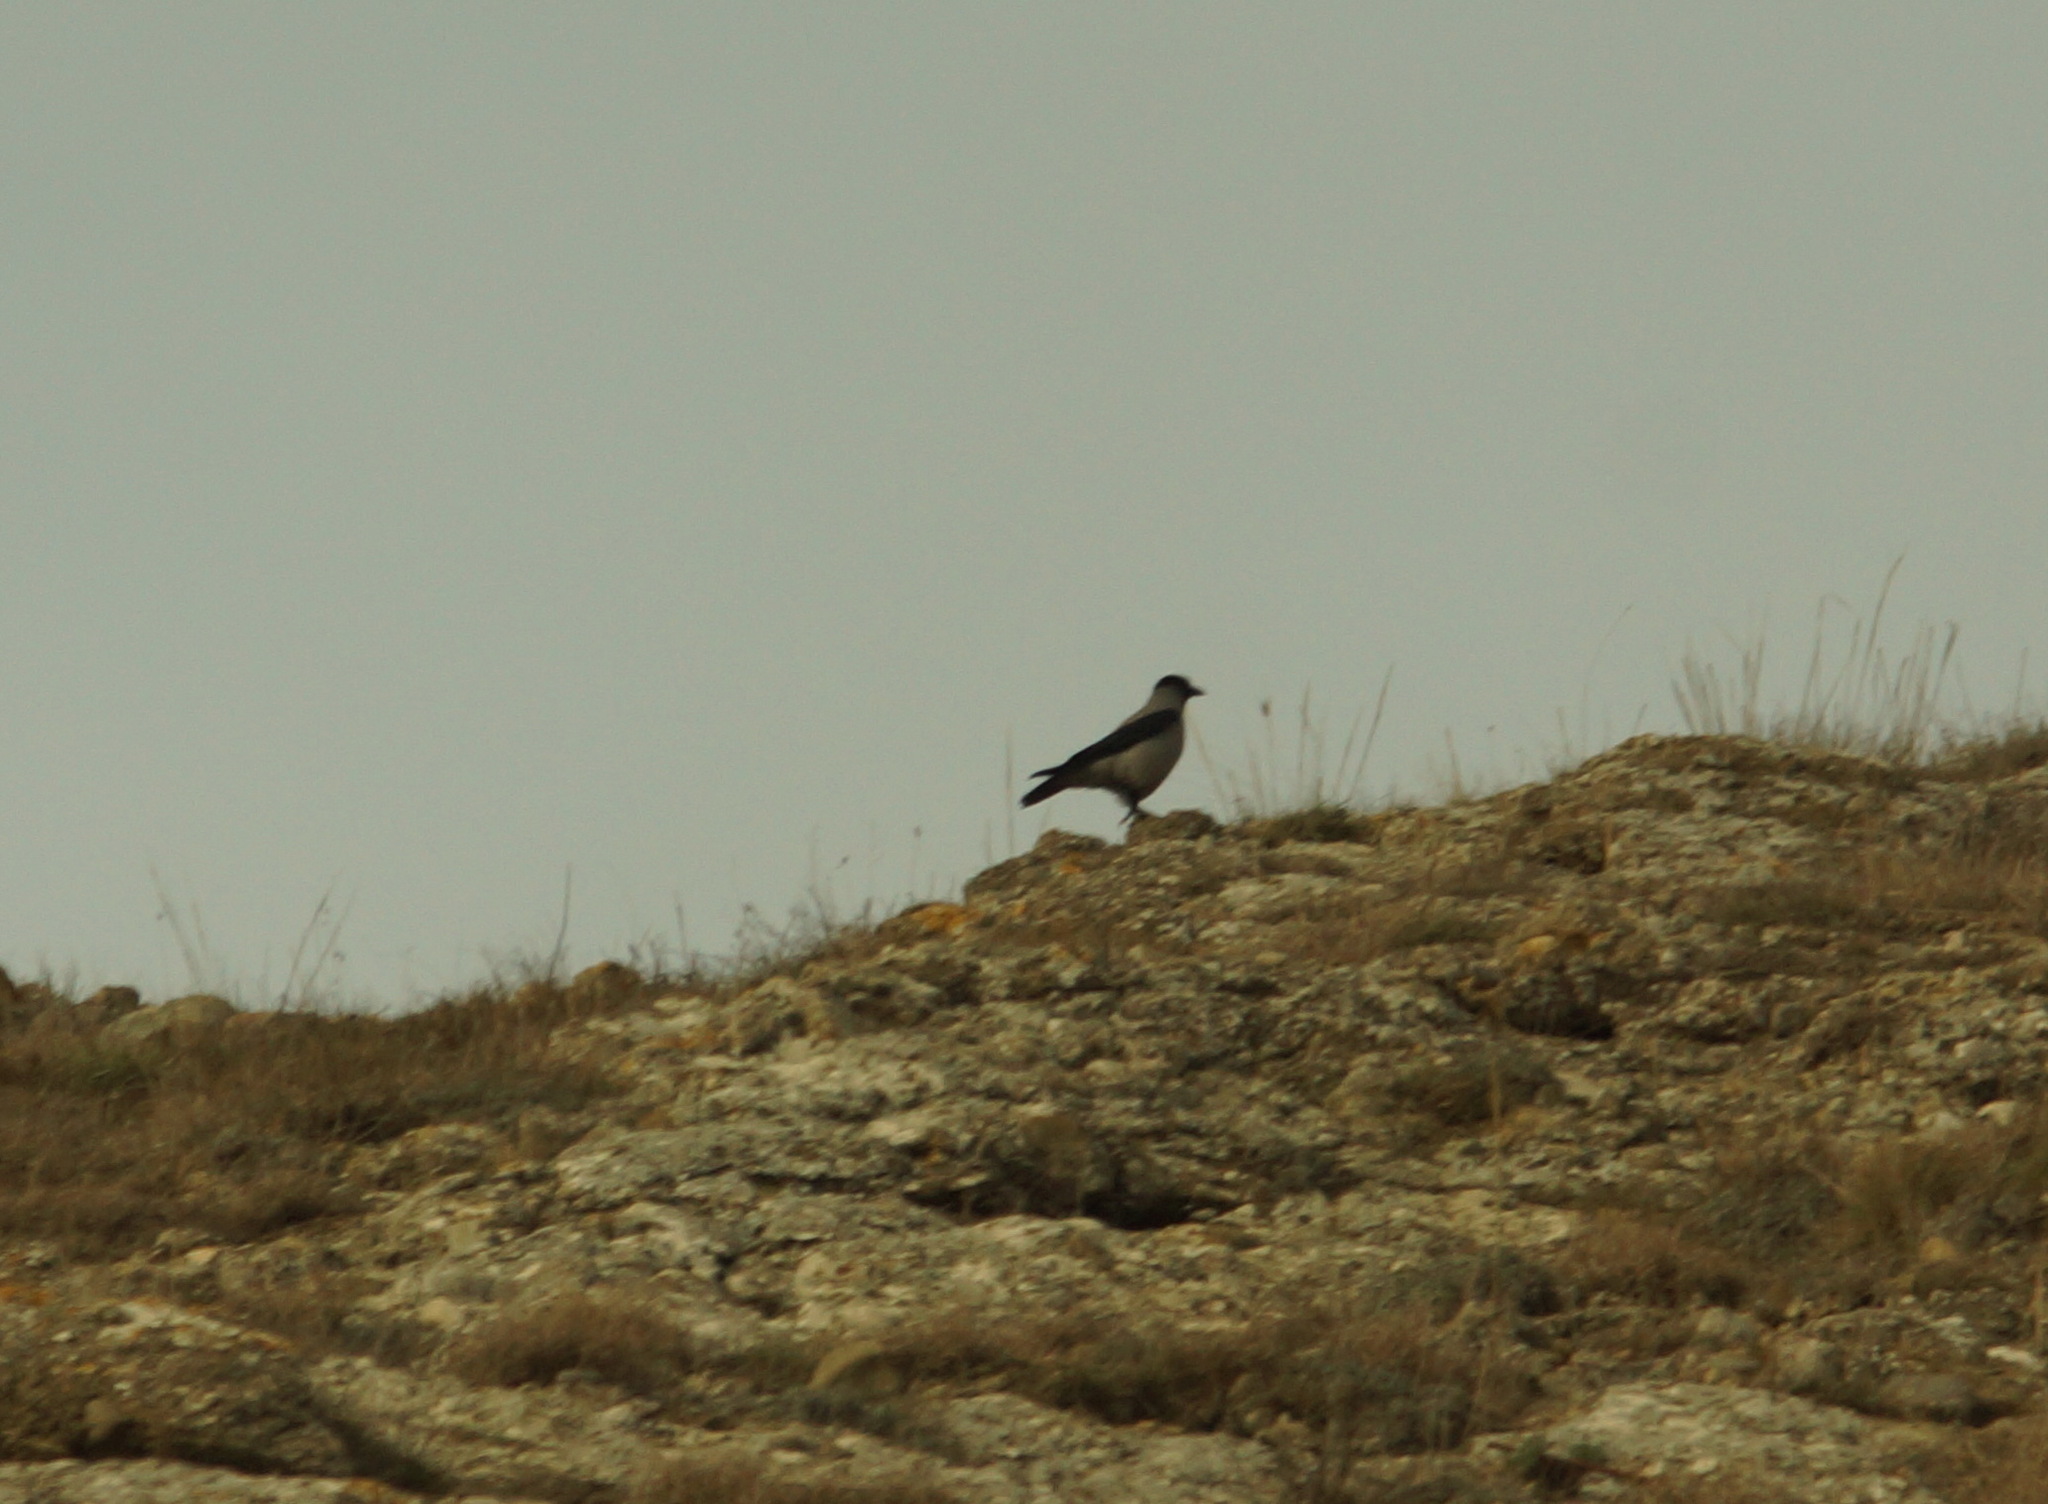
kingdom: Animalia
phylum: Chordata
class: Aves
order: Passeriformes
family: Corvidae
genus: Corvus
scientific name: Corvus cornix
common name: Hooded crow
